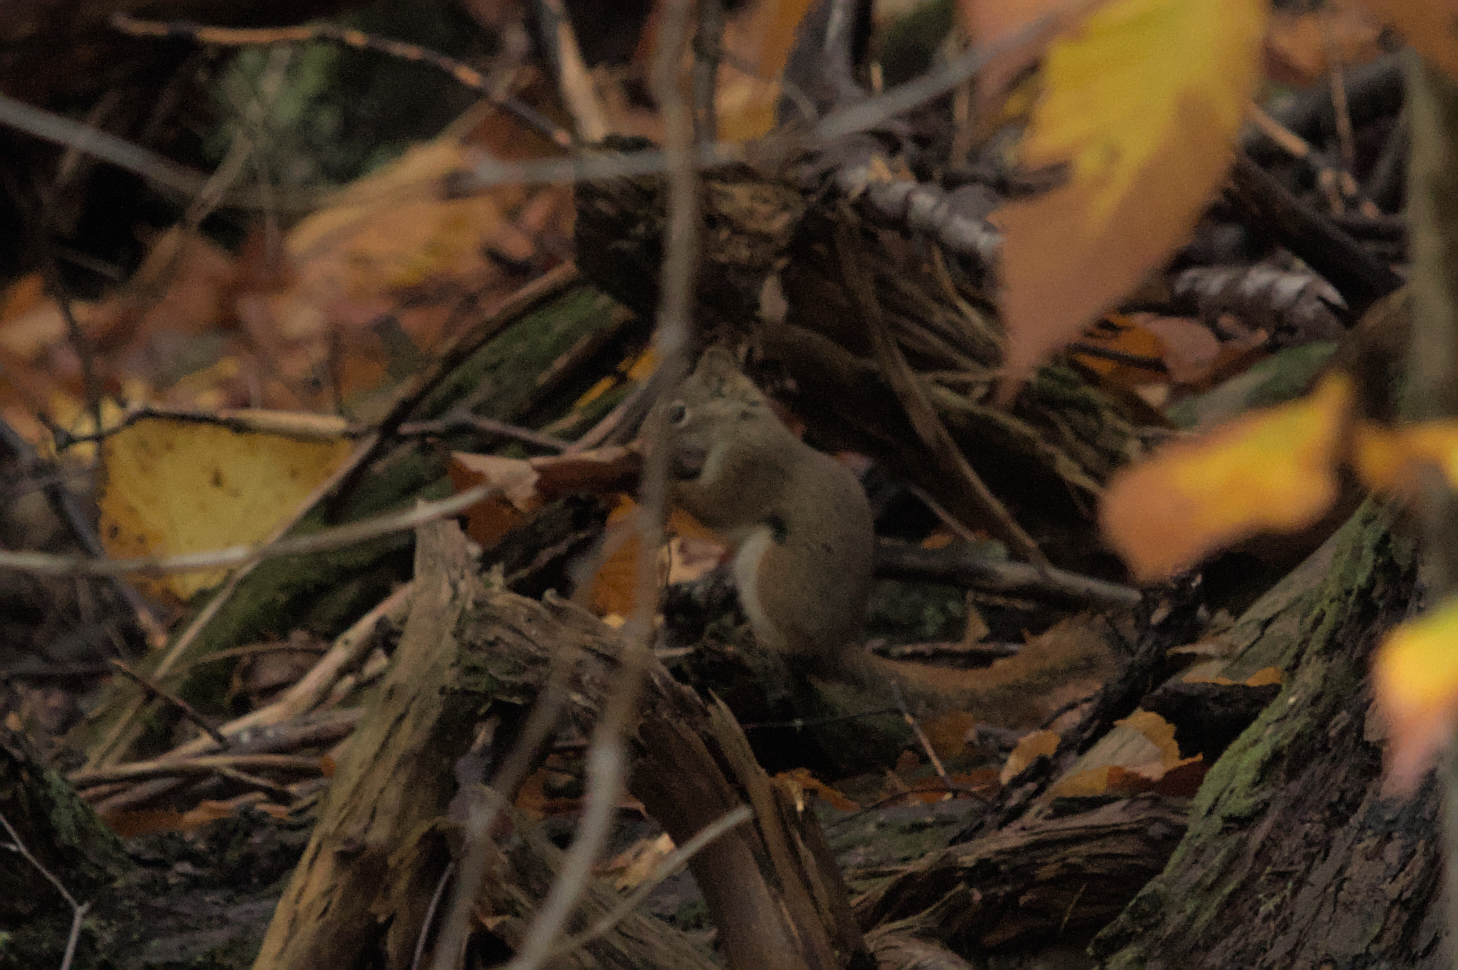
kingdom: Animalia
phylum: Chordata
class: Mammalia
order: Rodentia
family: Sciuridae
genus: Tamiasciurus
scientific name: Tamiasciurus hudsonicus
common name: Red squirrel
